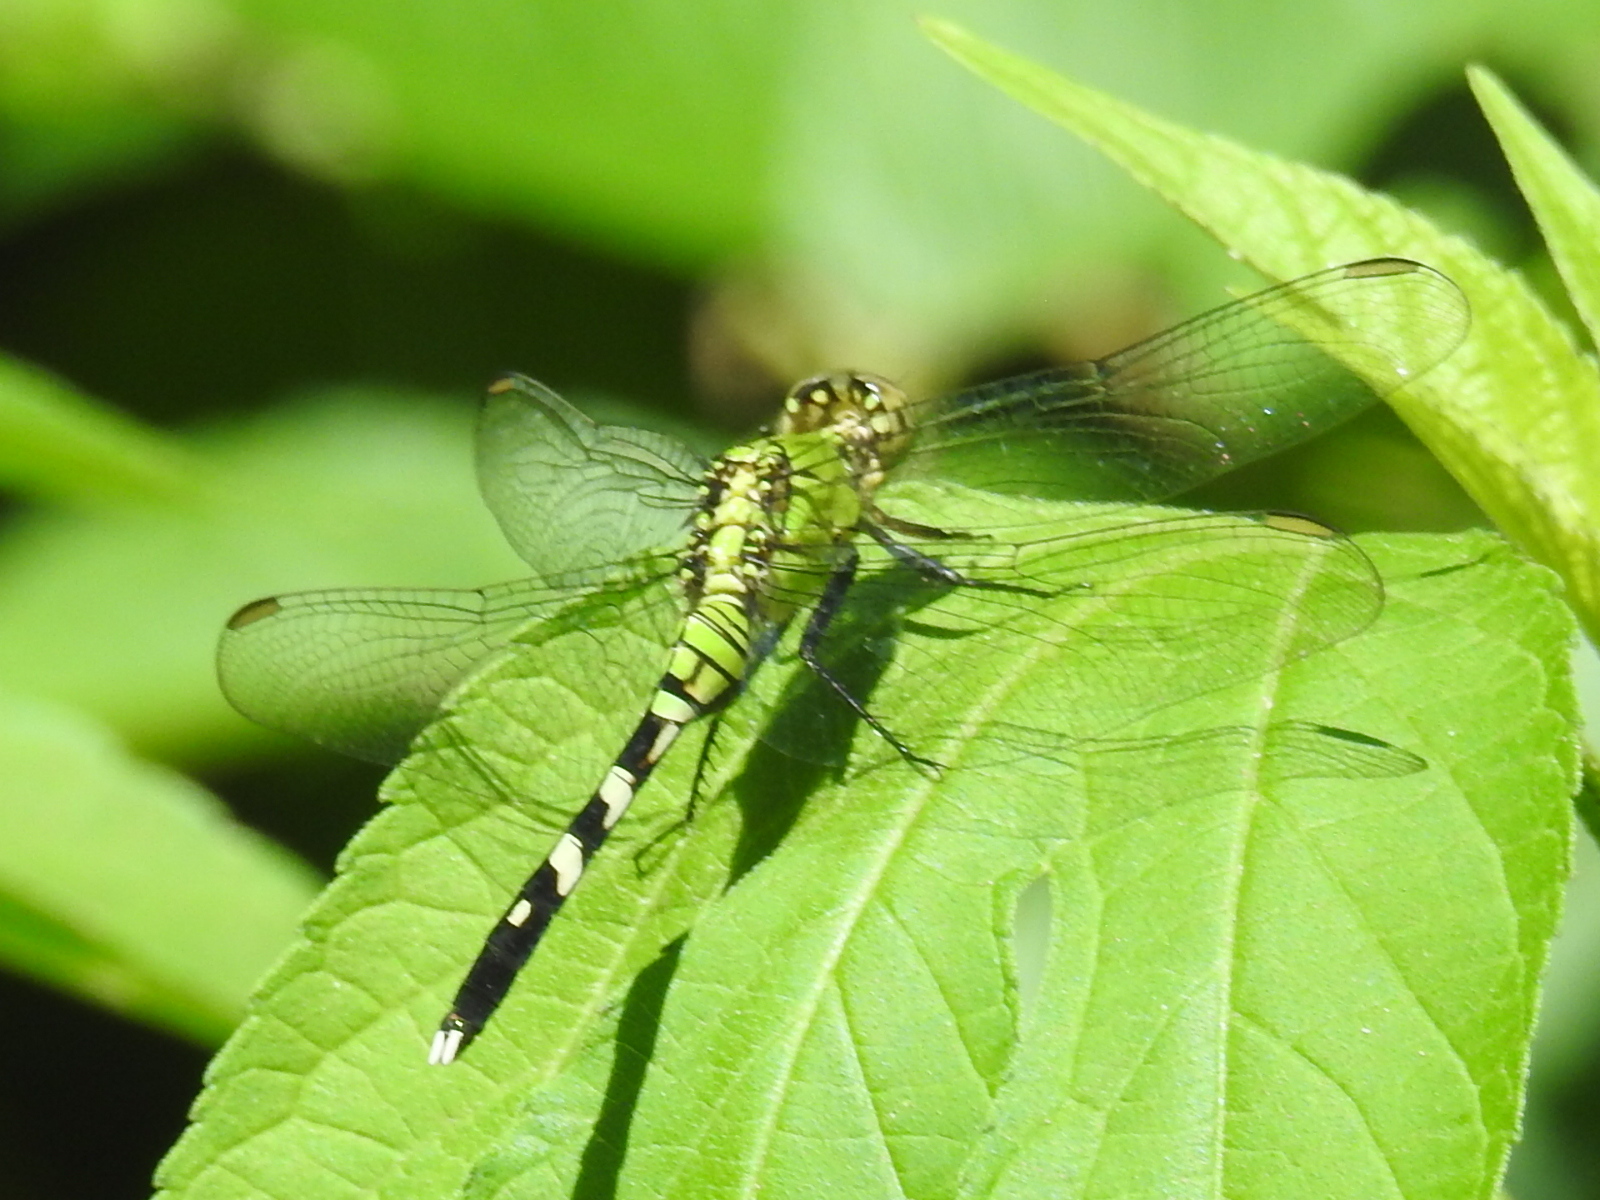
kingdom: Animalia
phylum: Arthropoda
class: Insecta
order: Odonata
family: Libellulidae
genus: Erythemis
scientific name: Erythemis simplicicollis
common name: Eastern pondhawk
